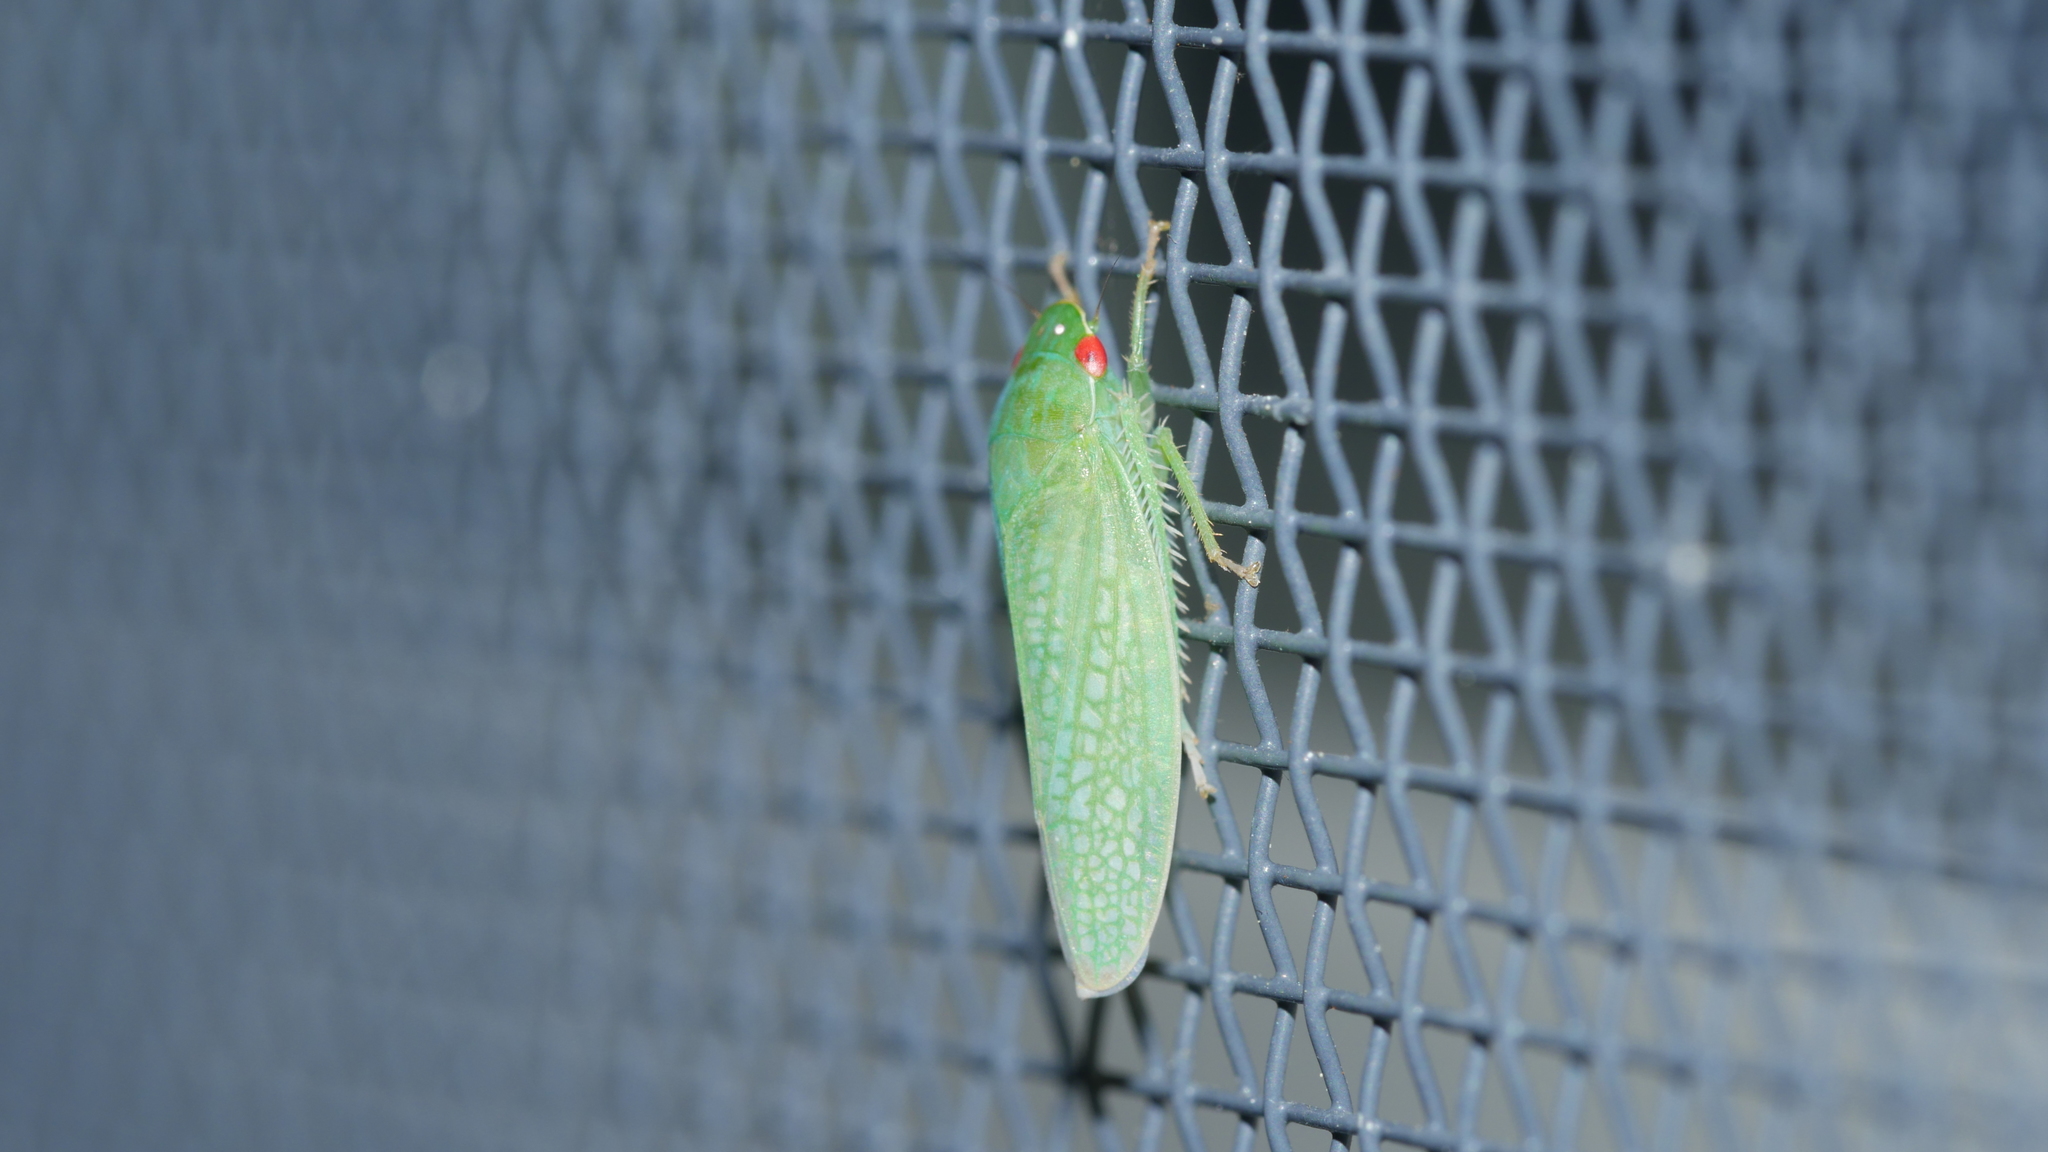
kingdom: Animalia
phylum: Arthropoda
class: Insecta
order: Hemiptera
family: Cicadellidae
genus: Gyponana
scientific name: Gyponana
